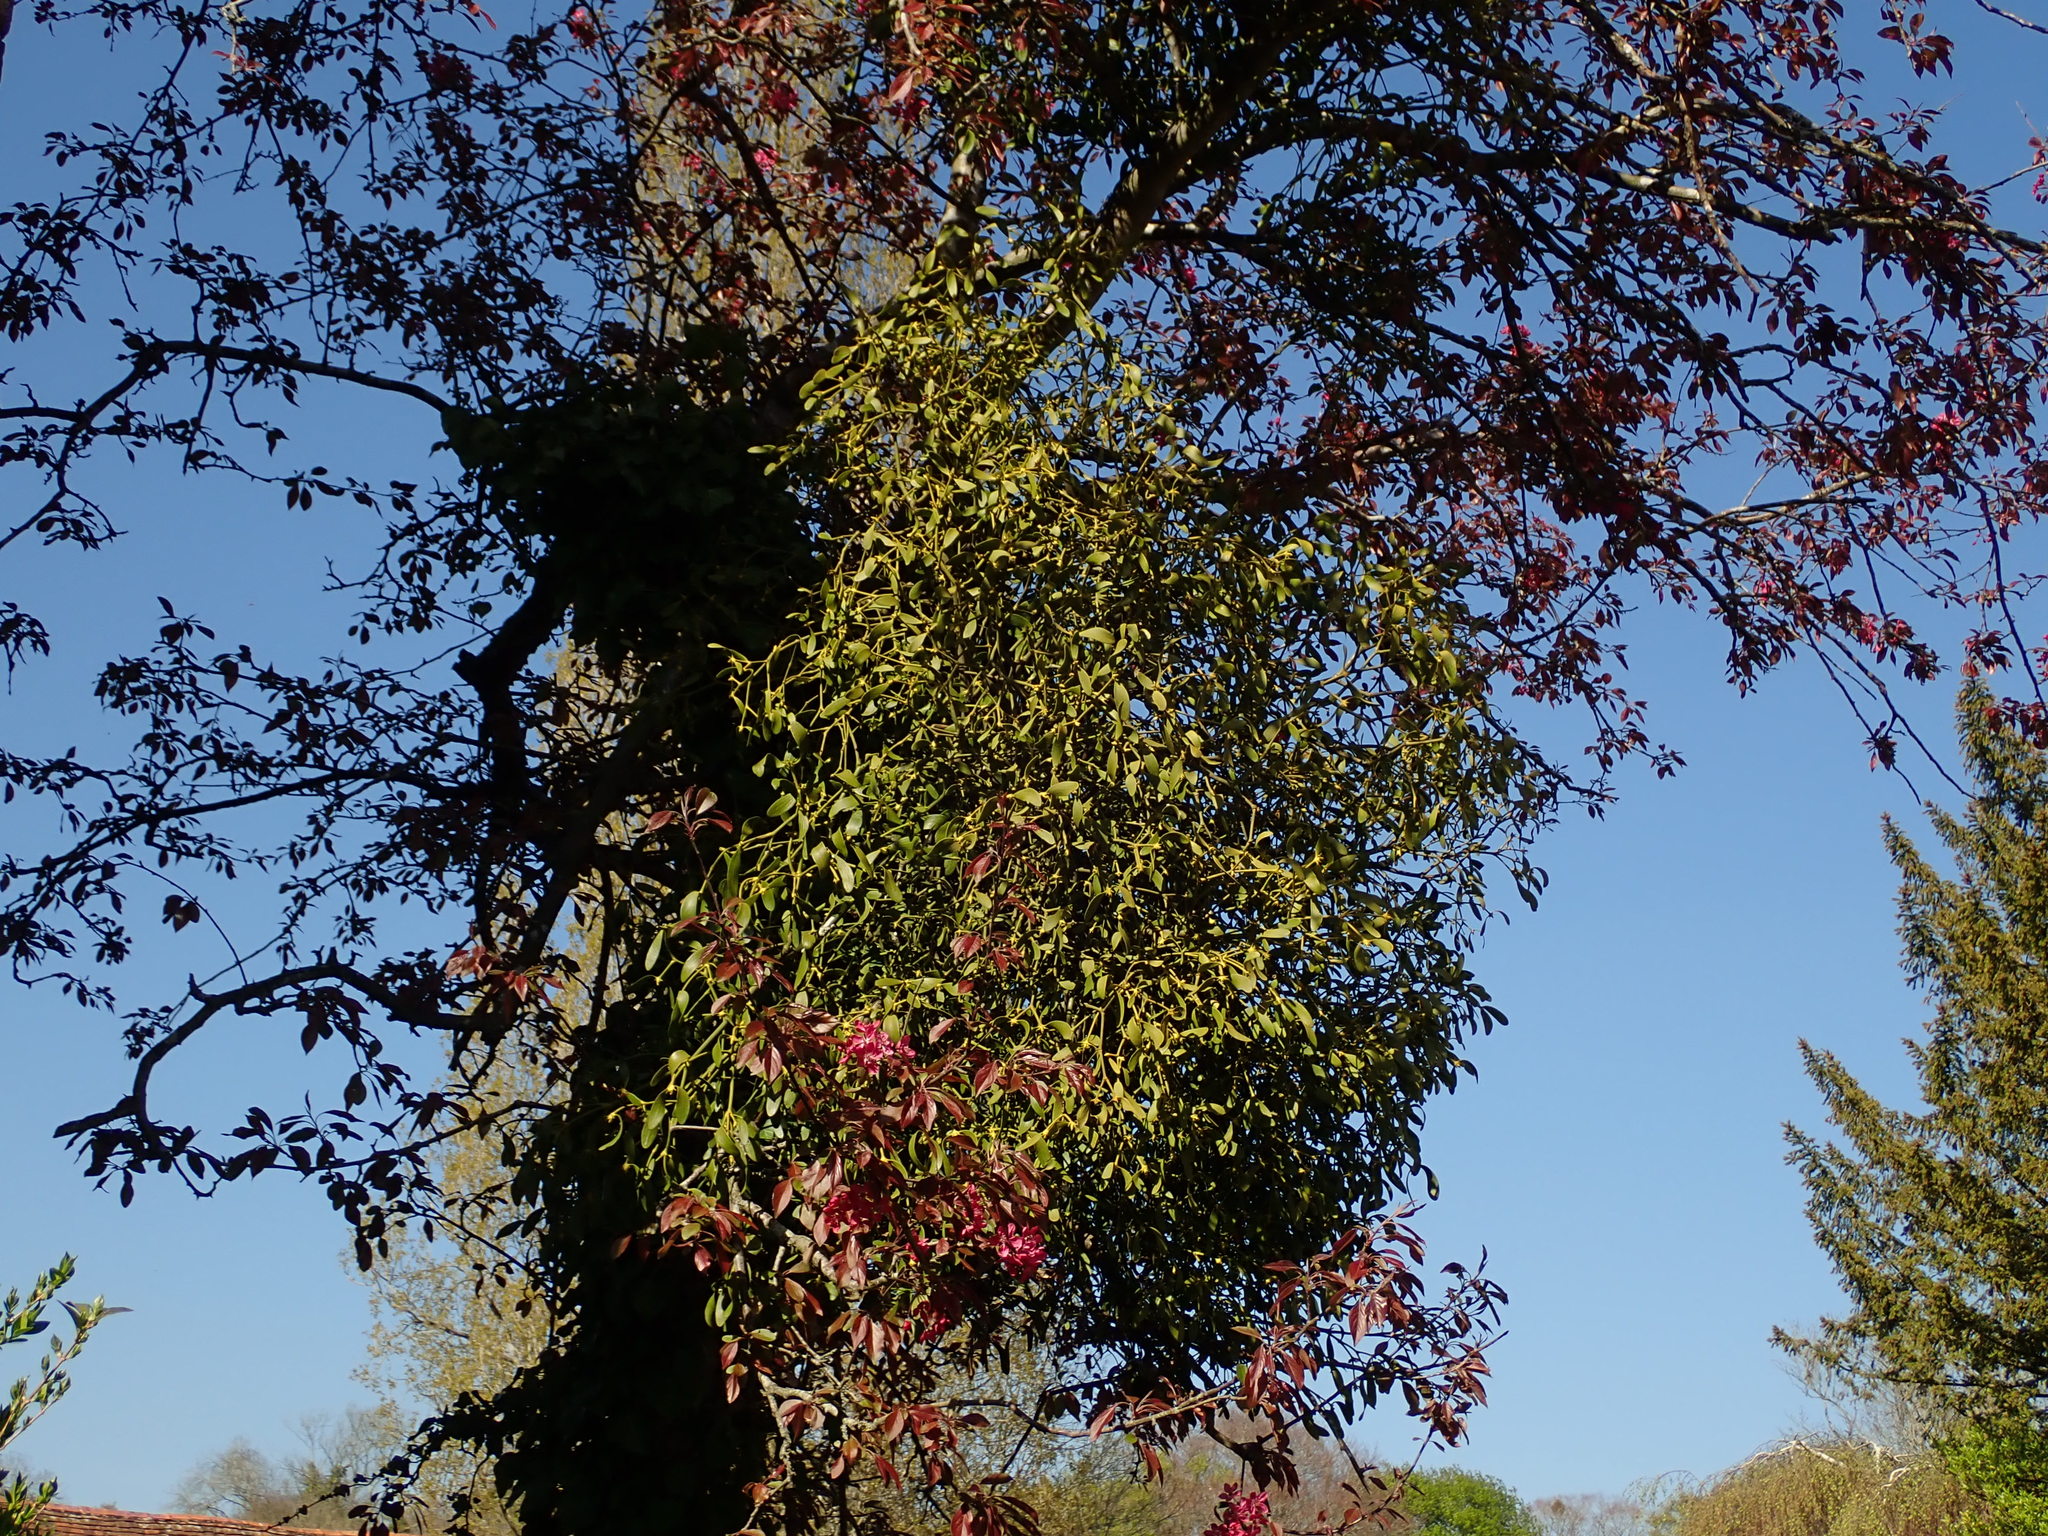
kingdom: Plantae
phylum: Tracheophyta
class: Magnoliopsida
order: Santalales
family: Viscaceae
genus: Viscum
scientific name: Viscum album
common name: Mistletoe
